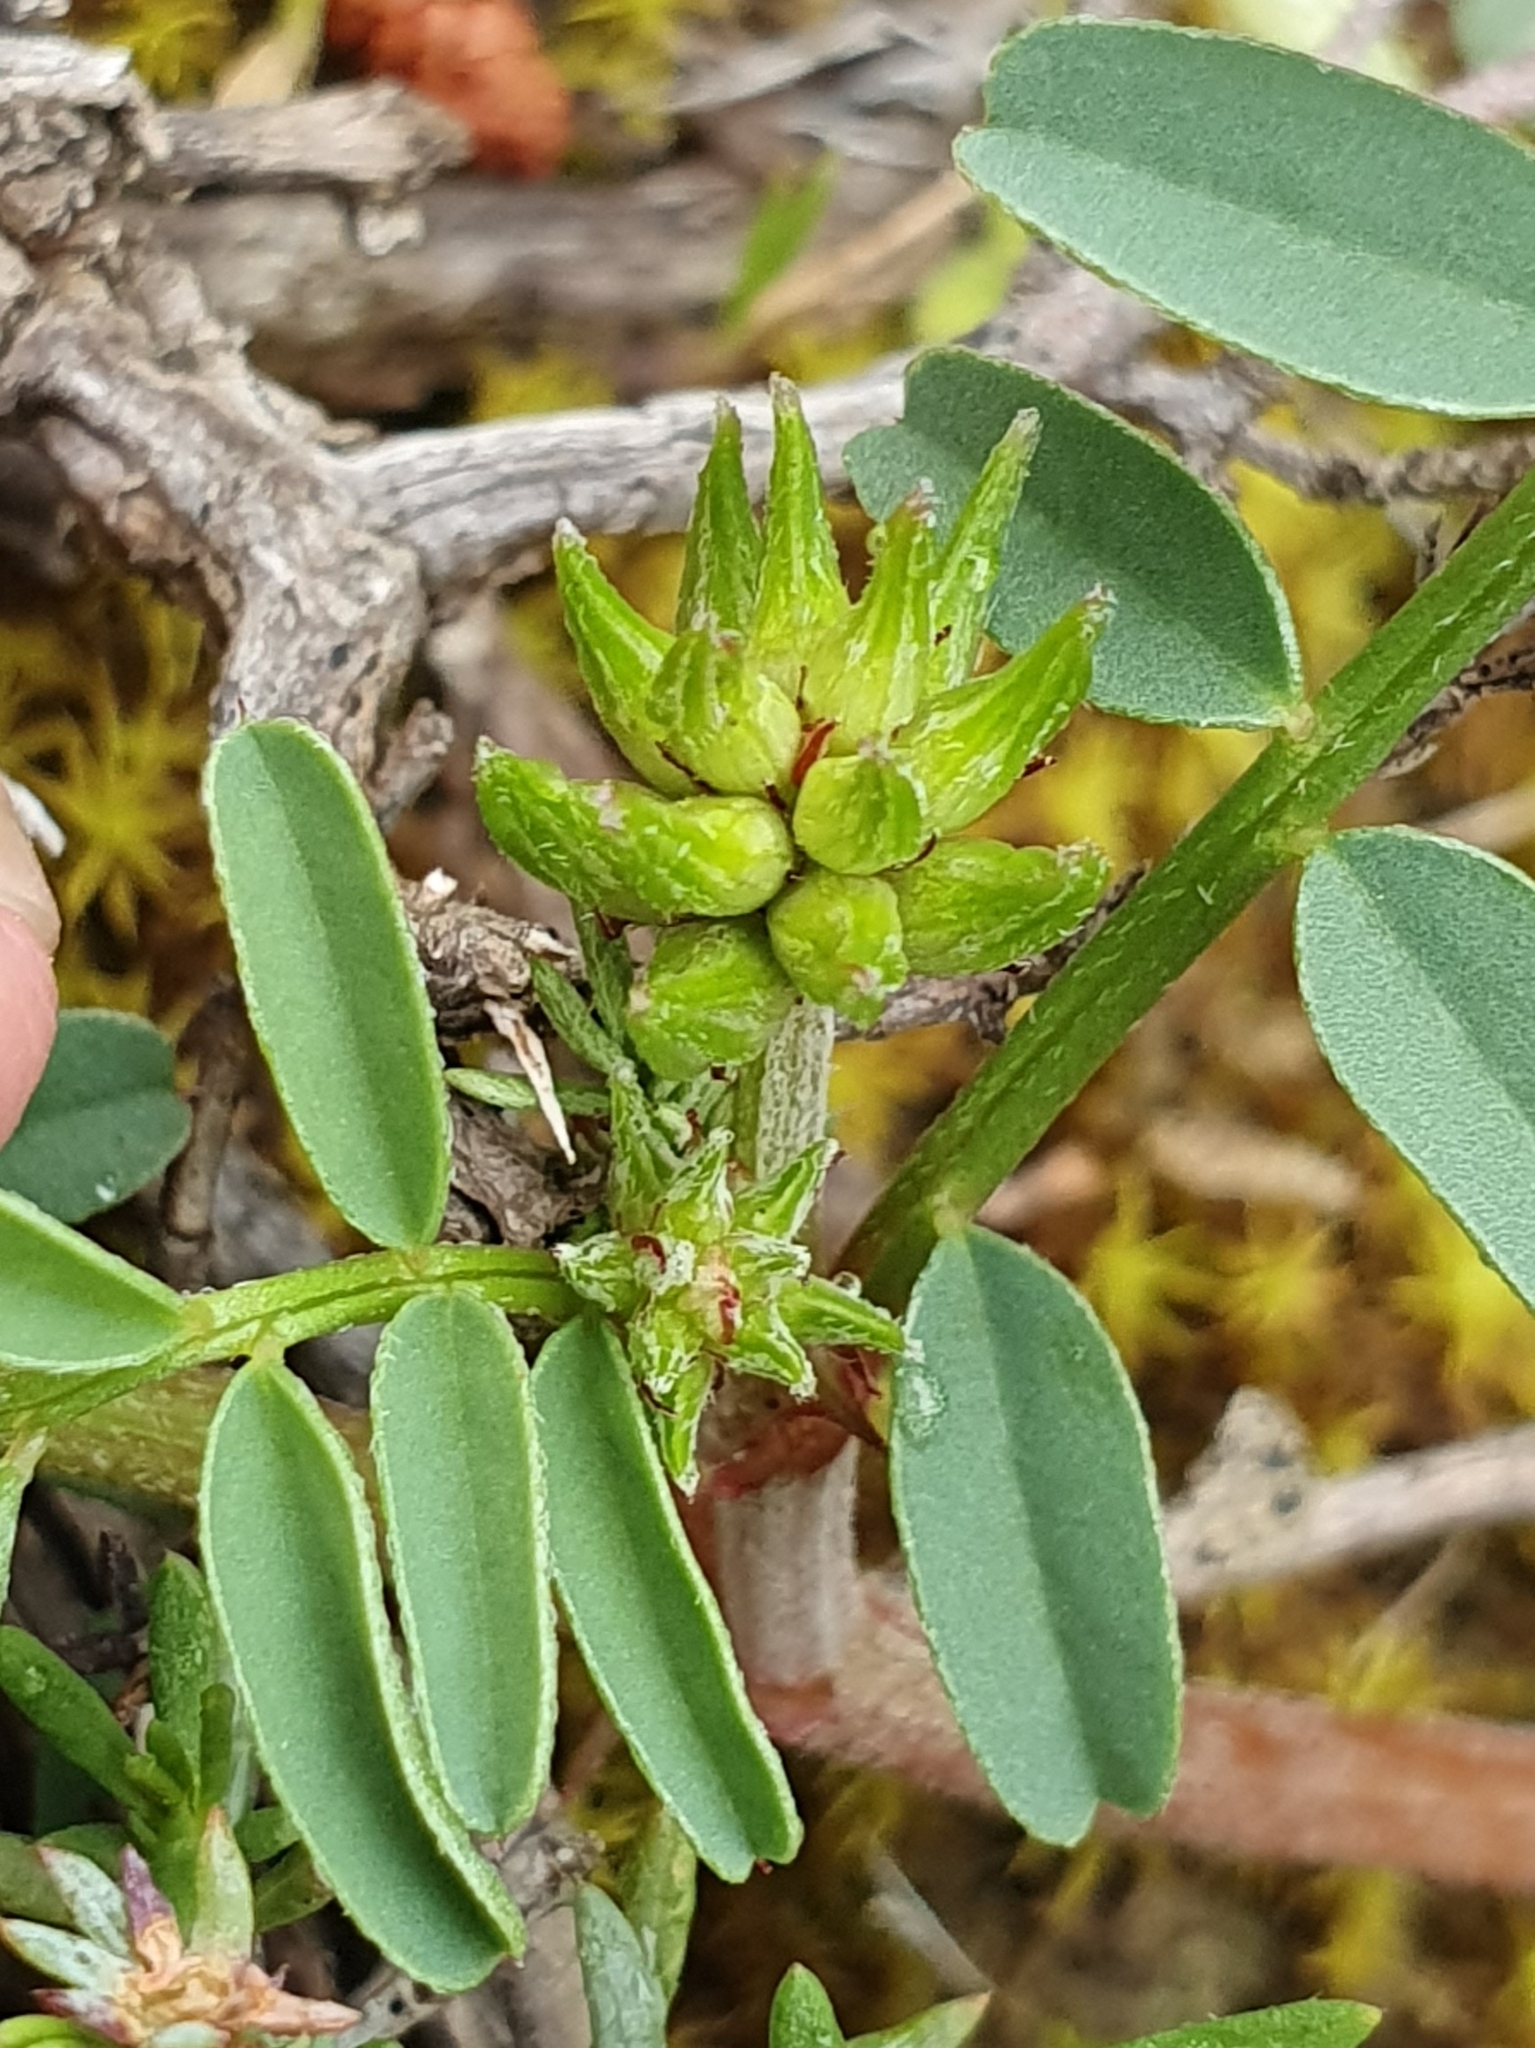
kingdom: Plantae
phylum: Tracheophyta
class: Magnoliopsida
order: Fabales
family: Fabaceae
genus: Sulla
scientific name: Sulla glomerata
